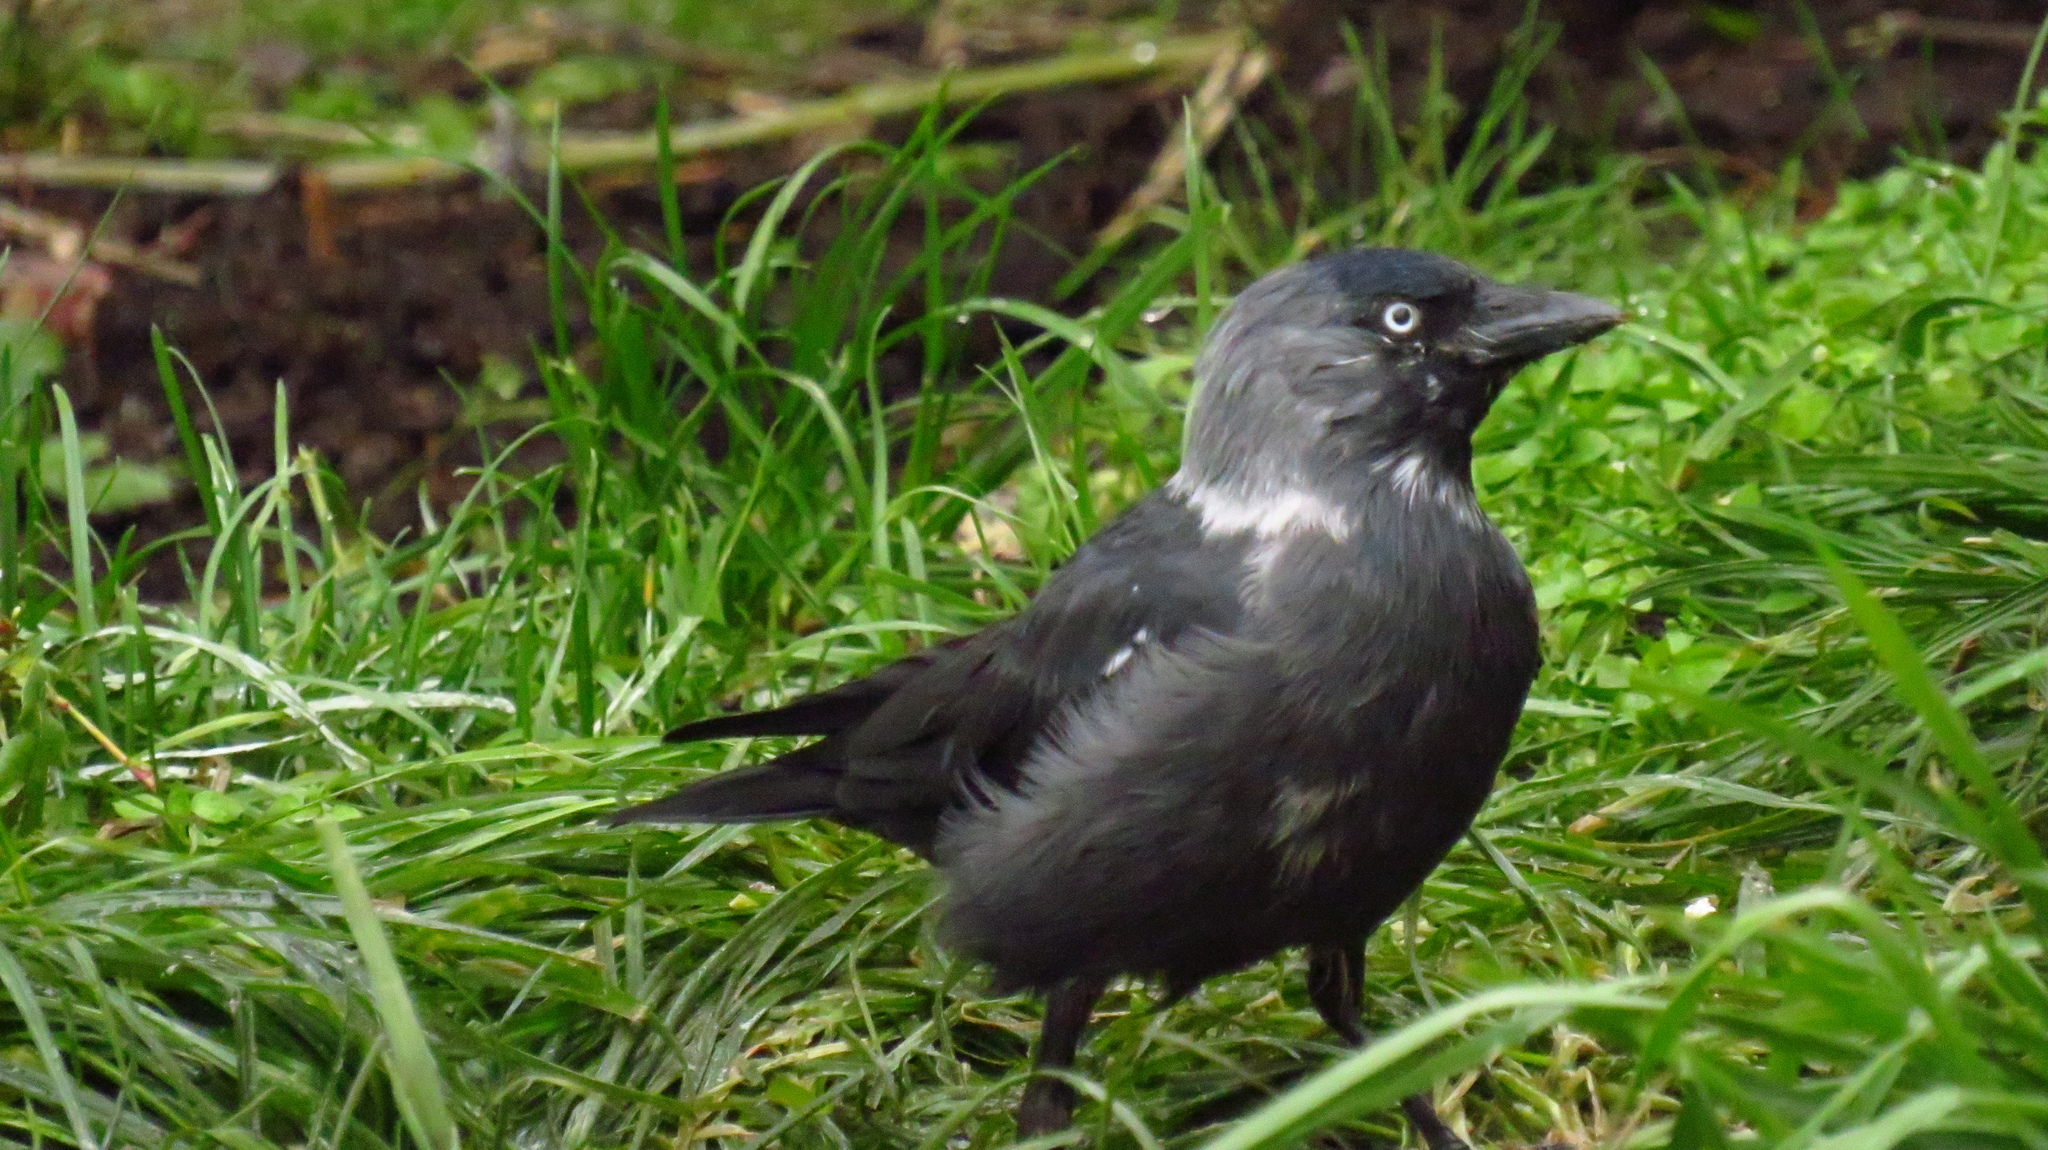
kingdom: Animalia
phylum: Chordata
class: Aves
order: Passeriformes
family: Corvidae
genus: Coloeus
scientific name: Coloeus monedula
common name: Western jackdaw
